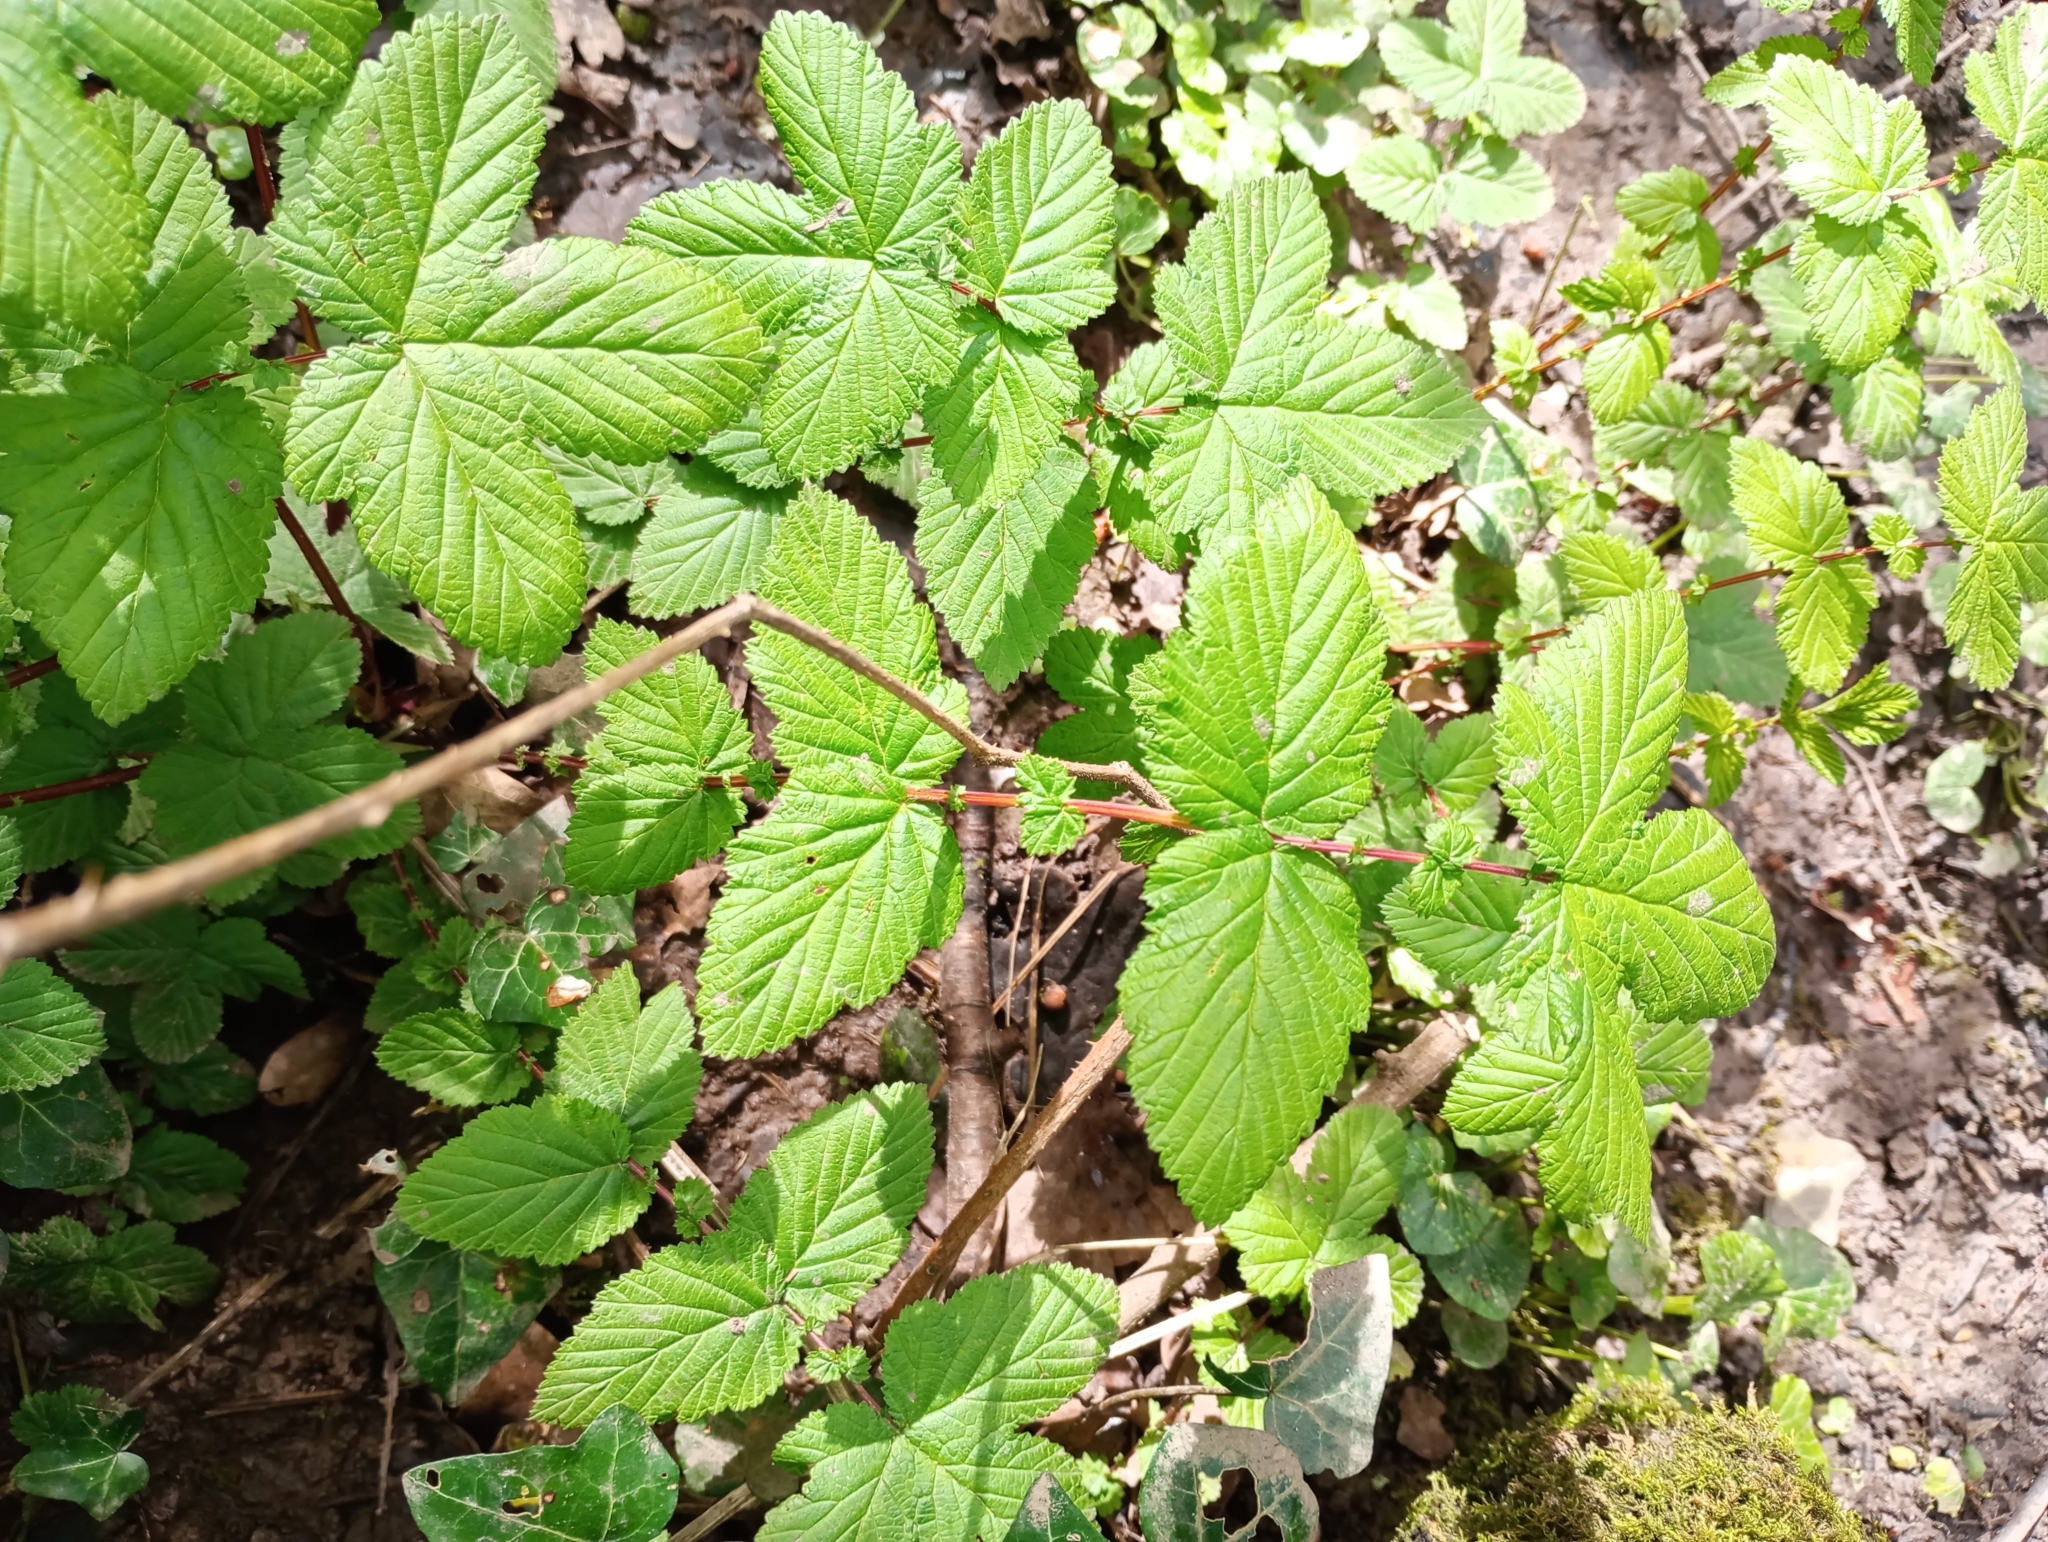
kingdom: Plantae
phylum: Tracheophyta
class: Magnoliopsida
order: Rosales
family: Rosaceae
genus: Filipendula
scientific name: Filipendula ulmaria
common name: Meadowsweet
